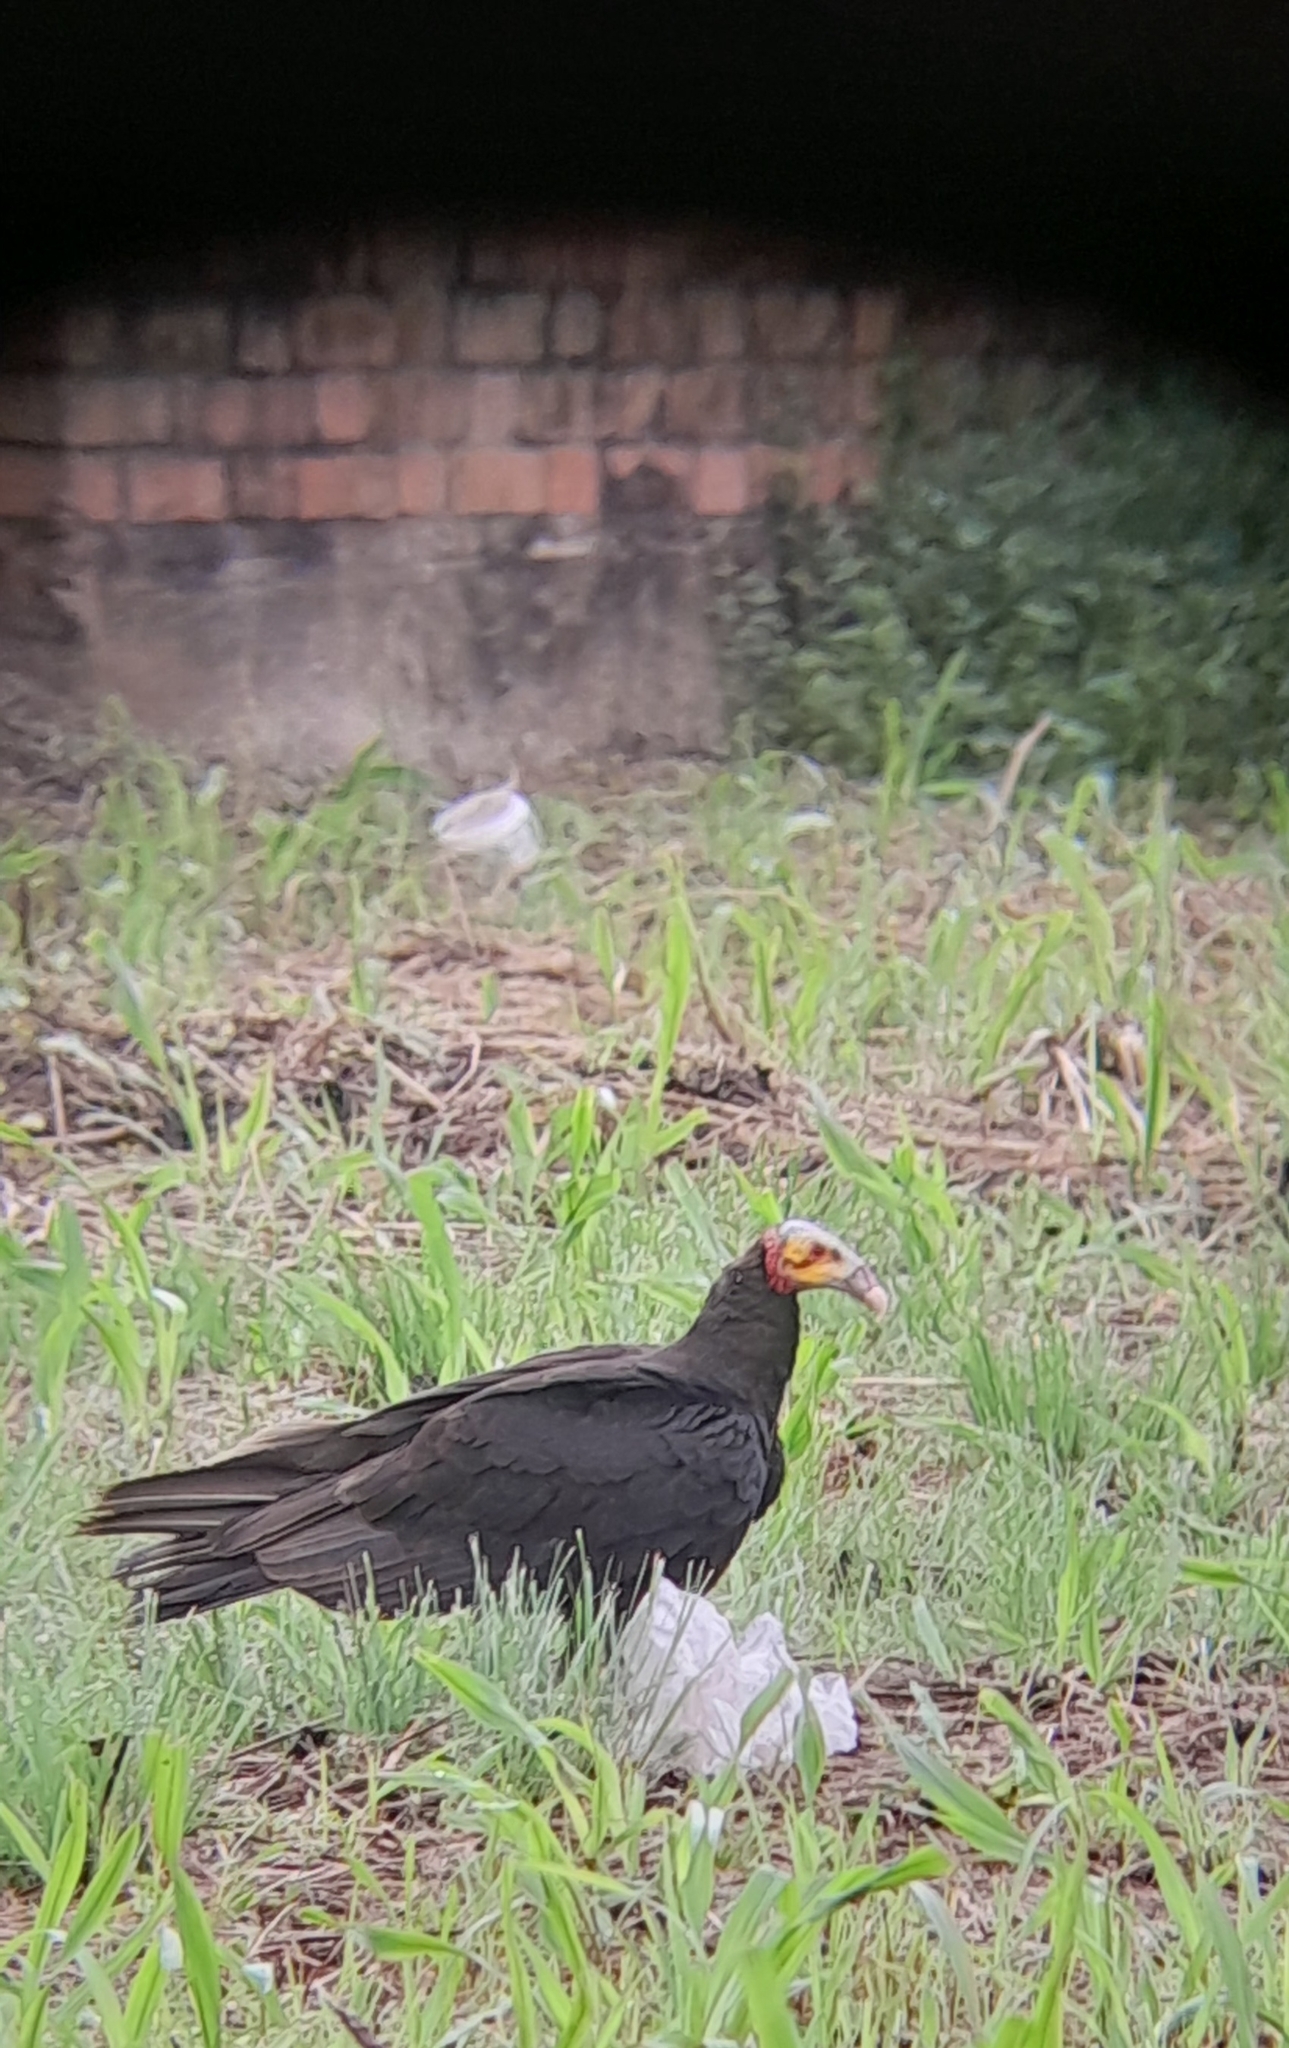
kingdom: Animalia
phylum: Chordata
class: Aves
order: Accipitriformes
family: Cathartidae
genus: Cathartes
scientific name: Cathartes burrovianus
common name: Lesser yellow-headed vulture
